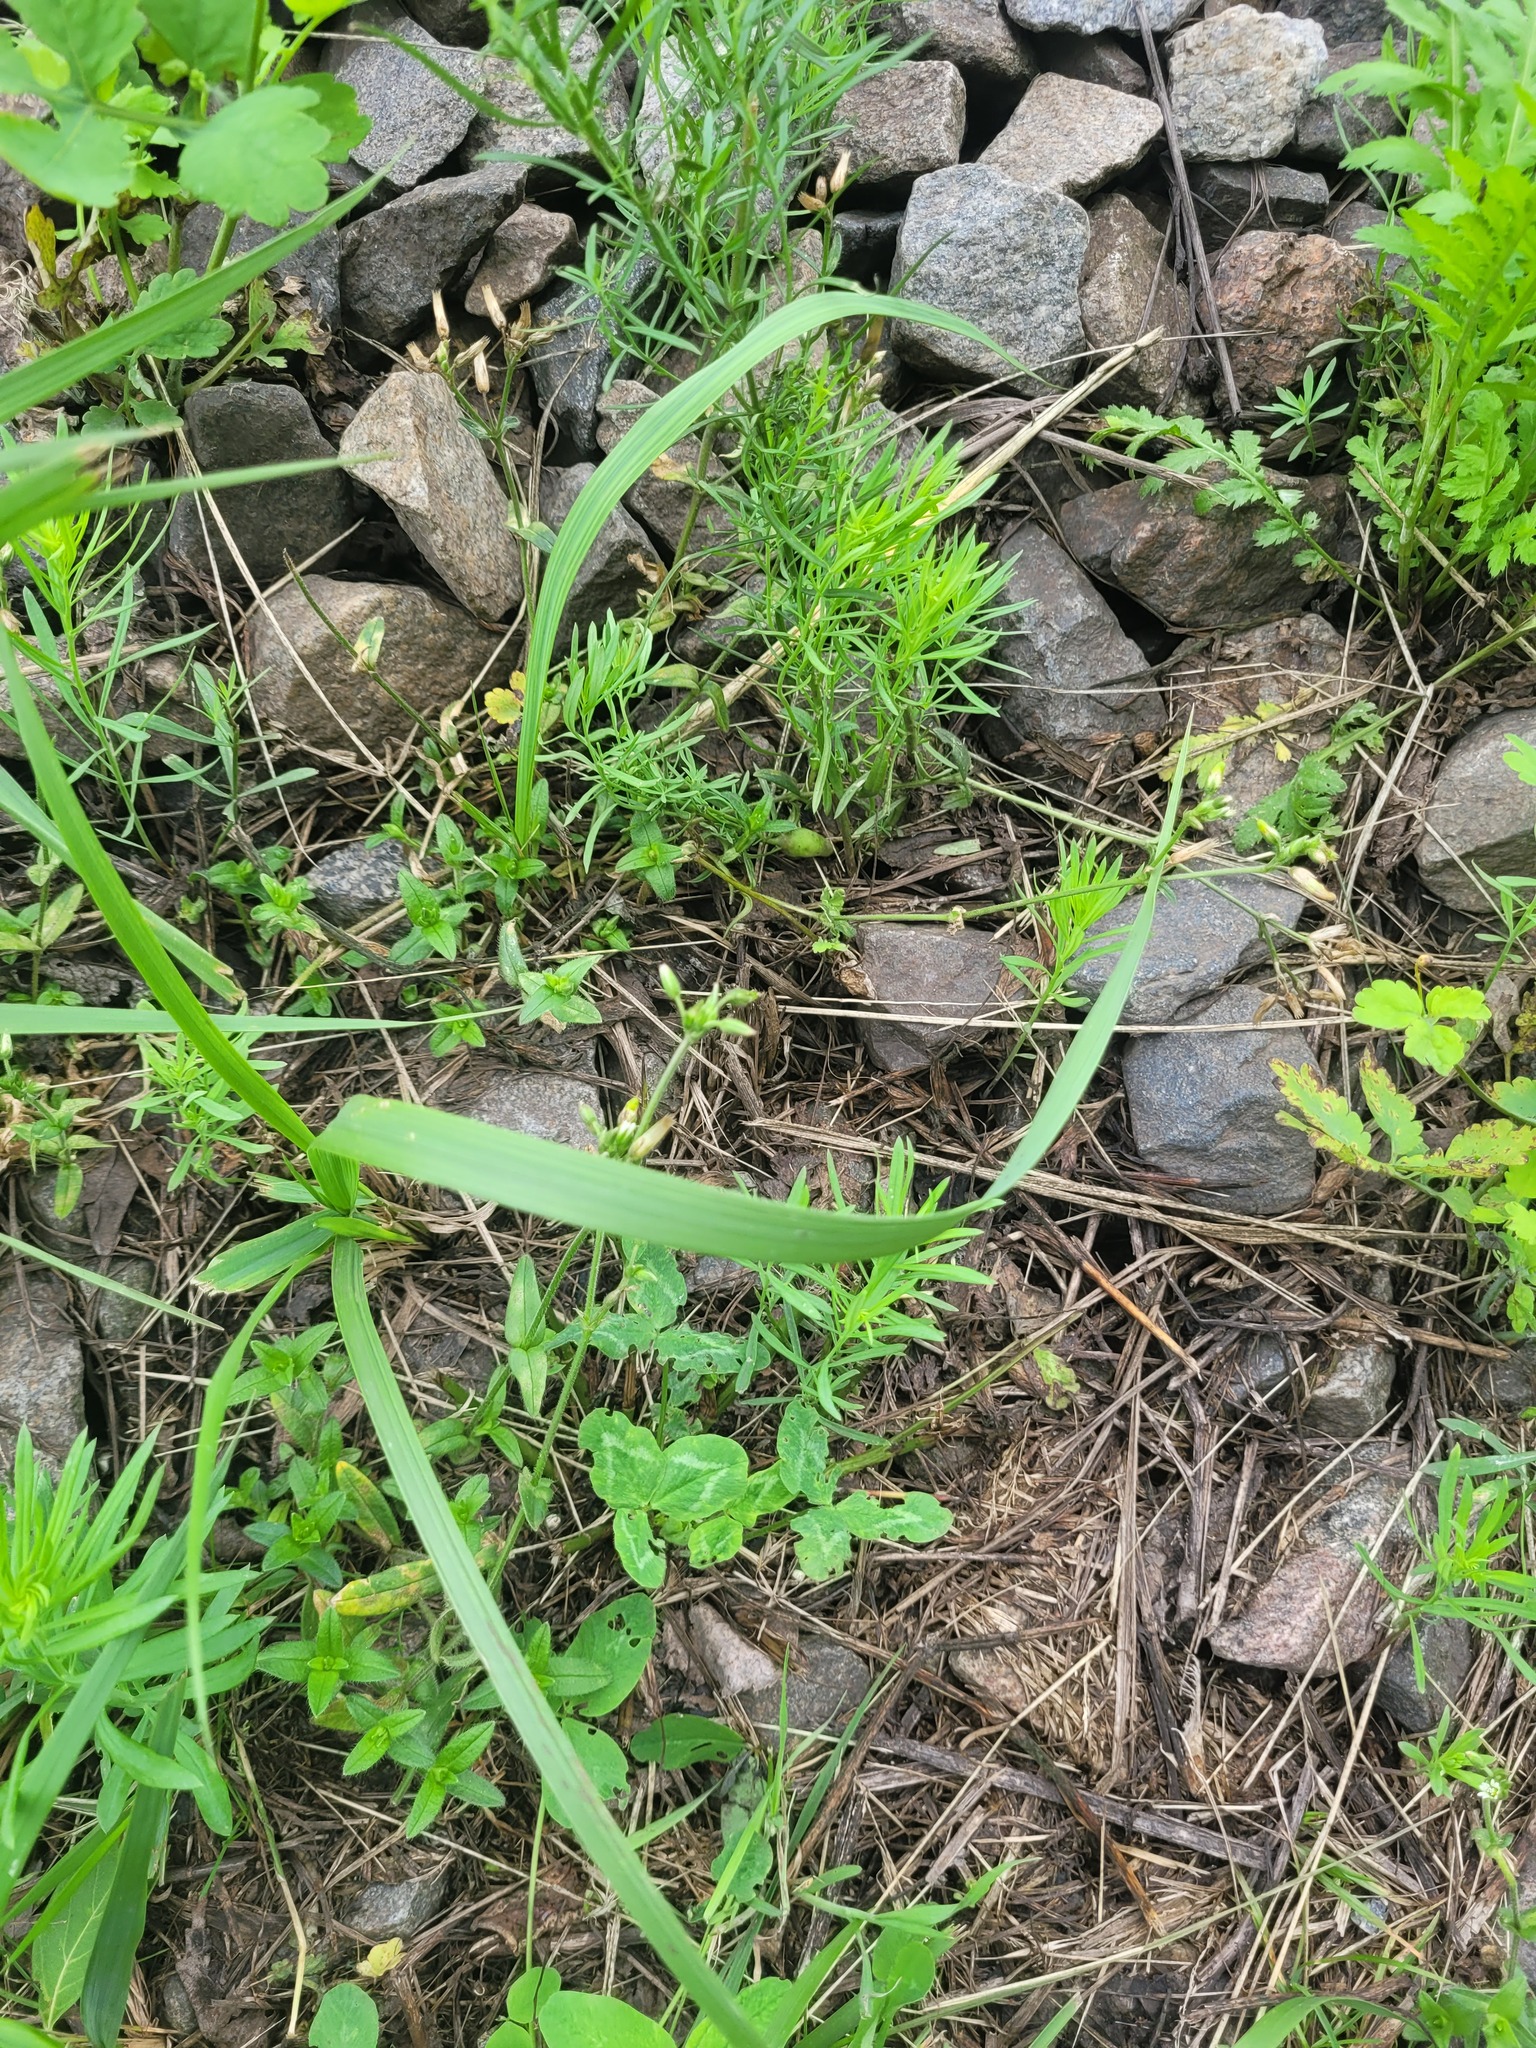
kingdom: Plantae
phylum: Tracheophyta
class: Magnoliopsida
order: Caryophyllales
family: Caryophyllaceae
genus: Cerastium
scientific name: Cerastium holosteoides
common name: Big chickweed
